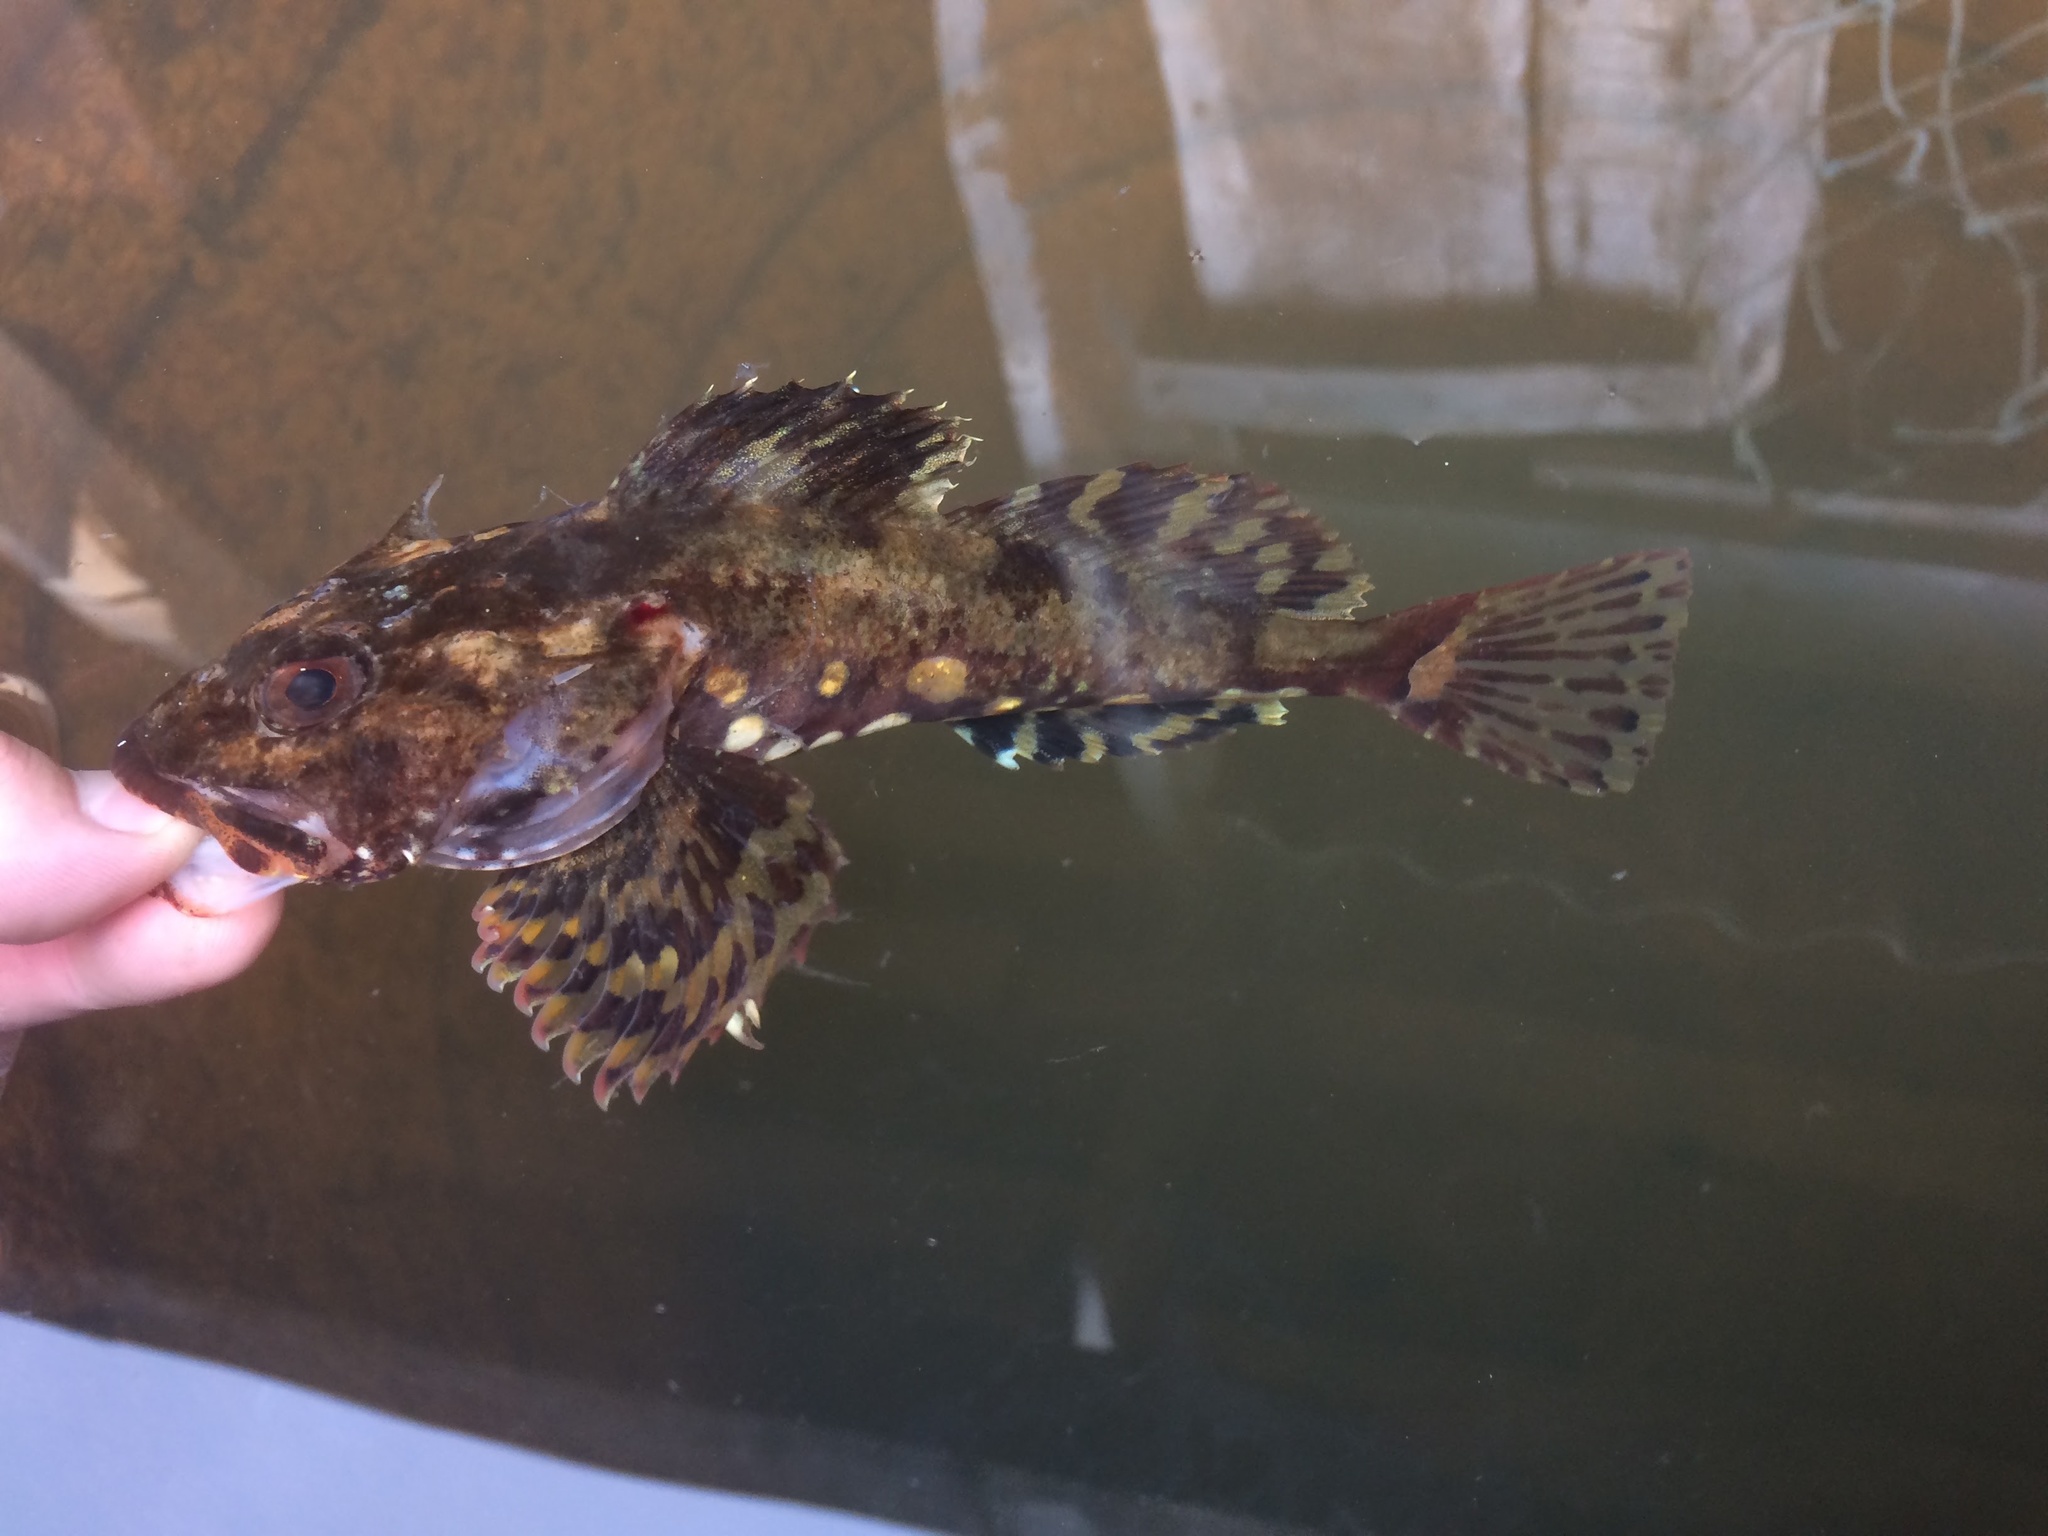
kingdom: Animalia
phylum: Chordata
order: Scorpaeniformes
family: Cottidae
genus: Myoxocephalus
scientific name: Myoxocephalus scorpius
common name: Shorthorn sculpin
